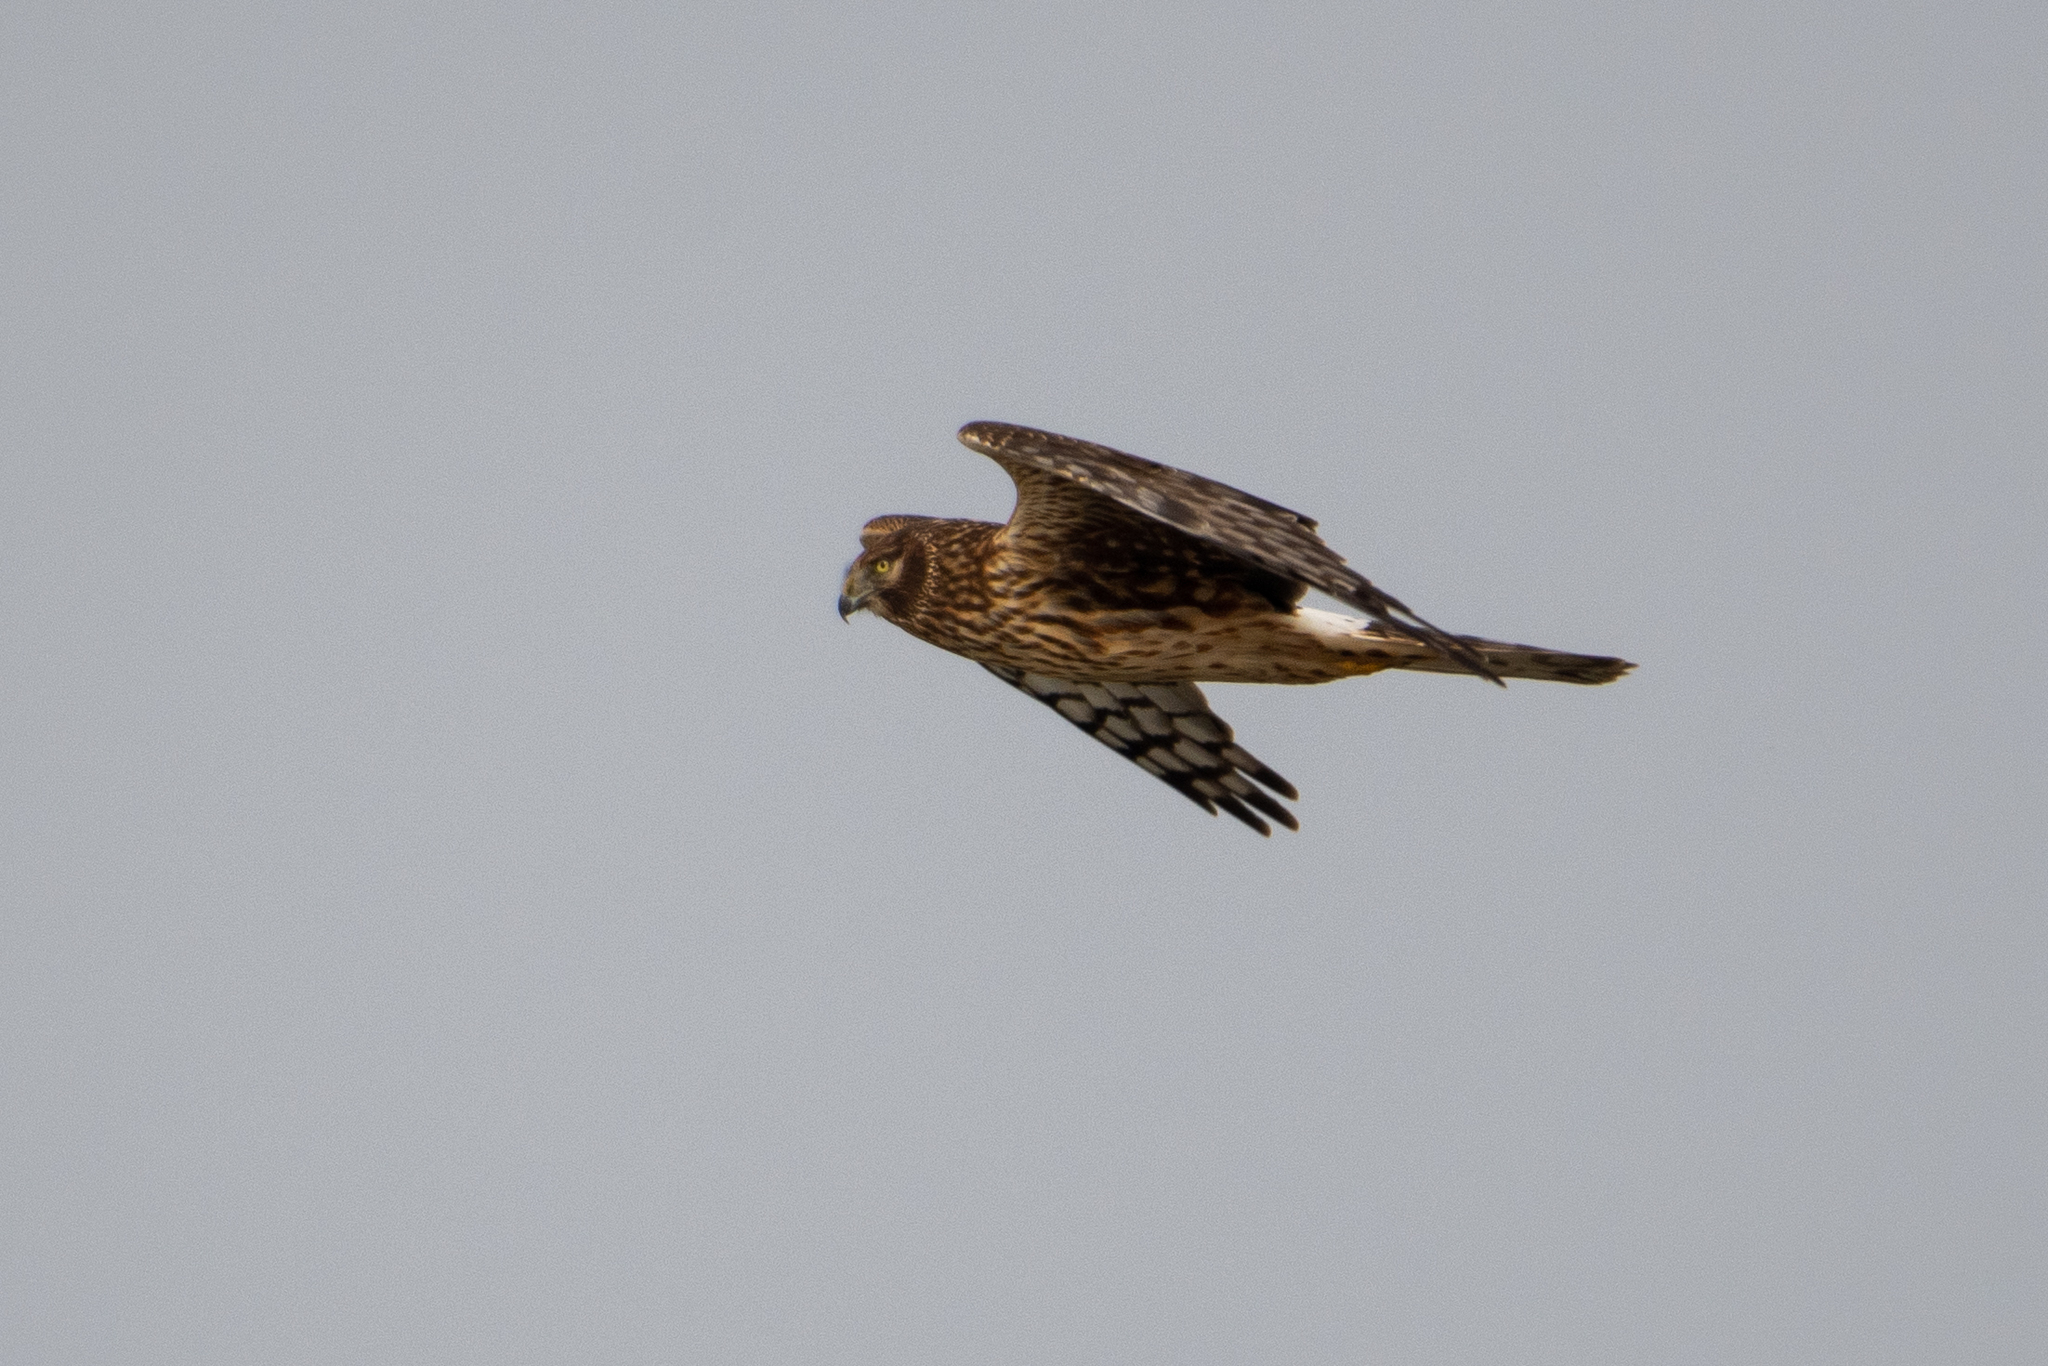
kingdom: Animalia
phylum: Chordata
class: Aves
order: Accipitriformes
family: Accipitridae
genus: Circus
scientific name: Circus cyaneus
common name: Hen harrier
